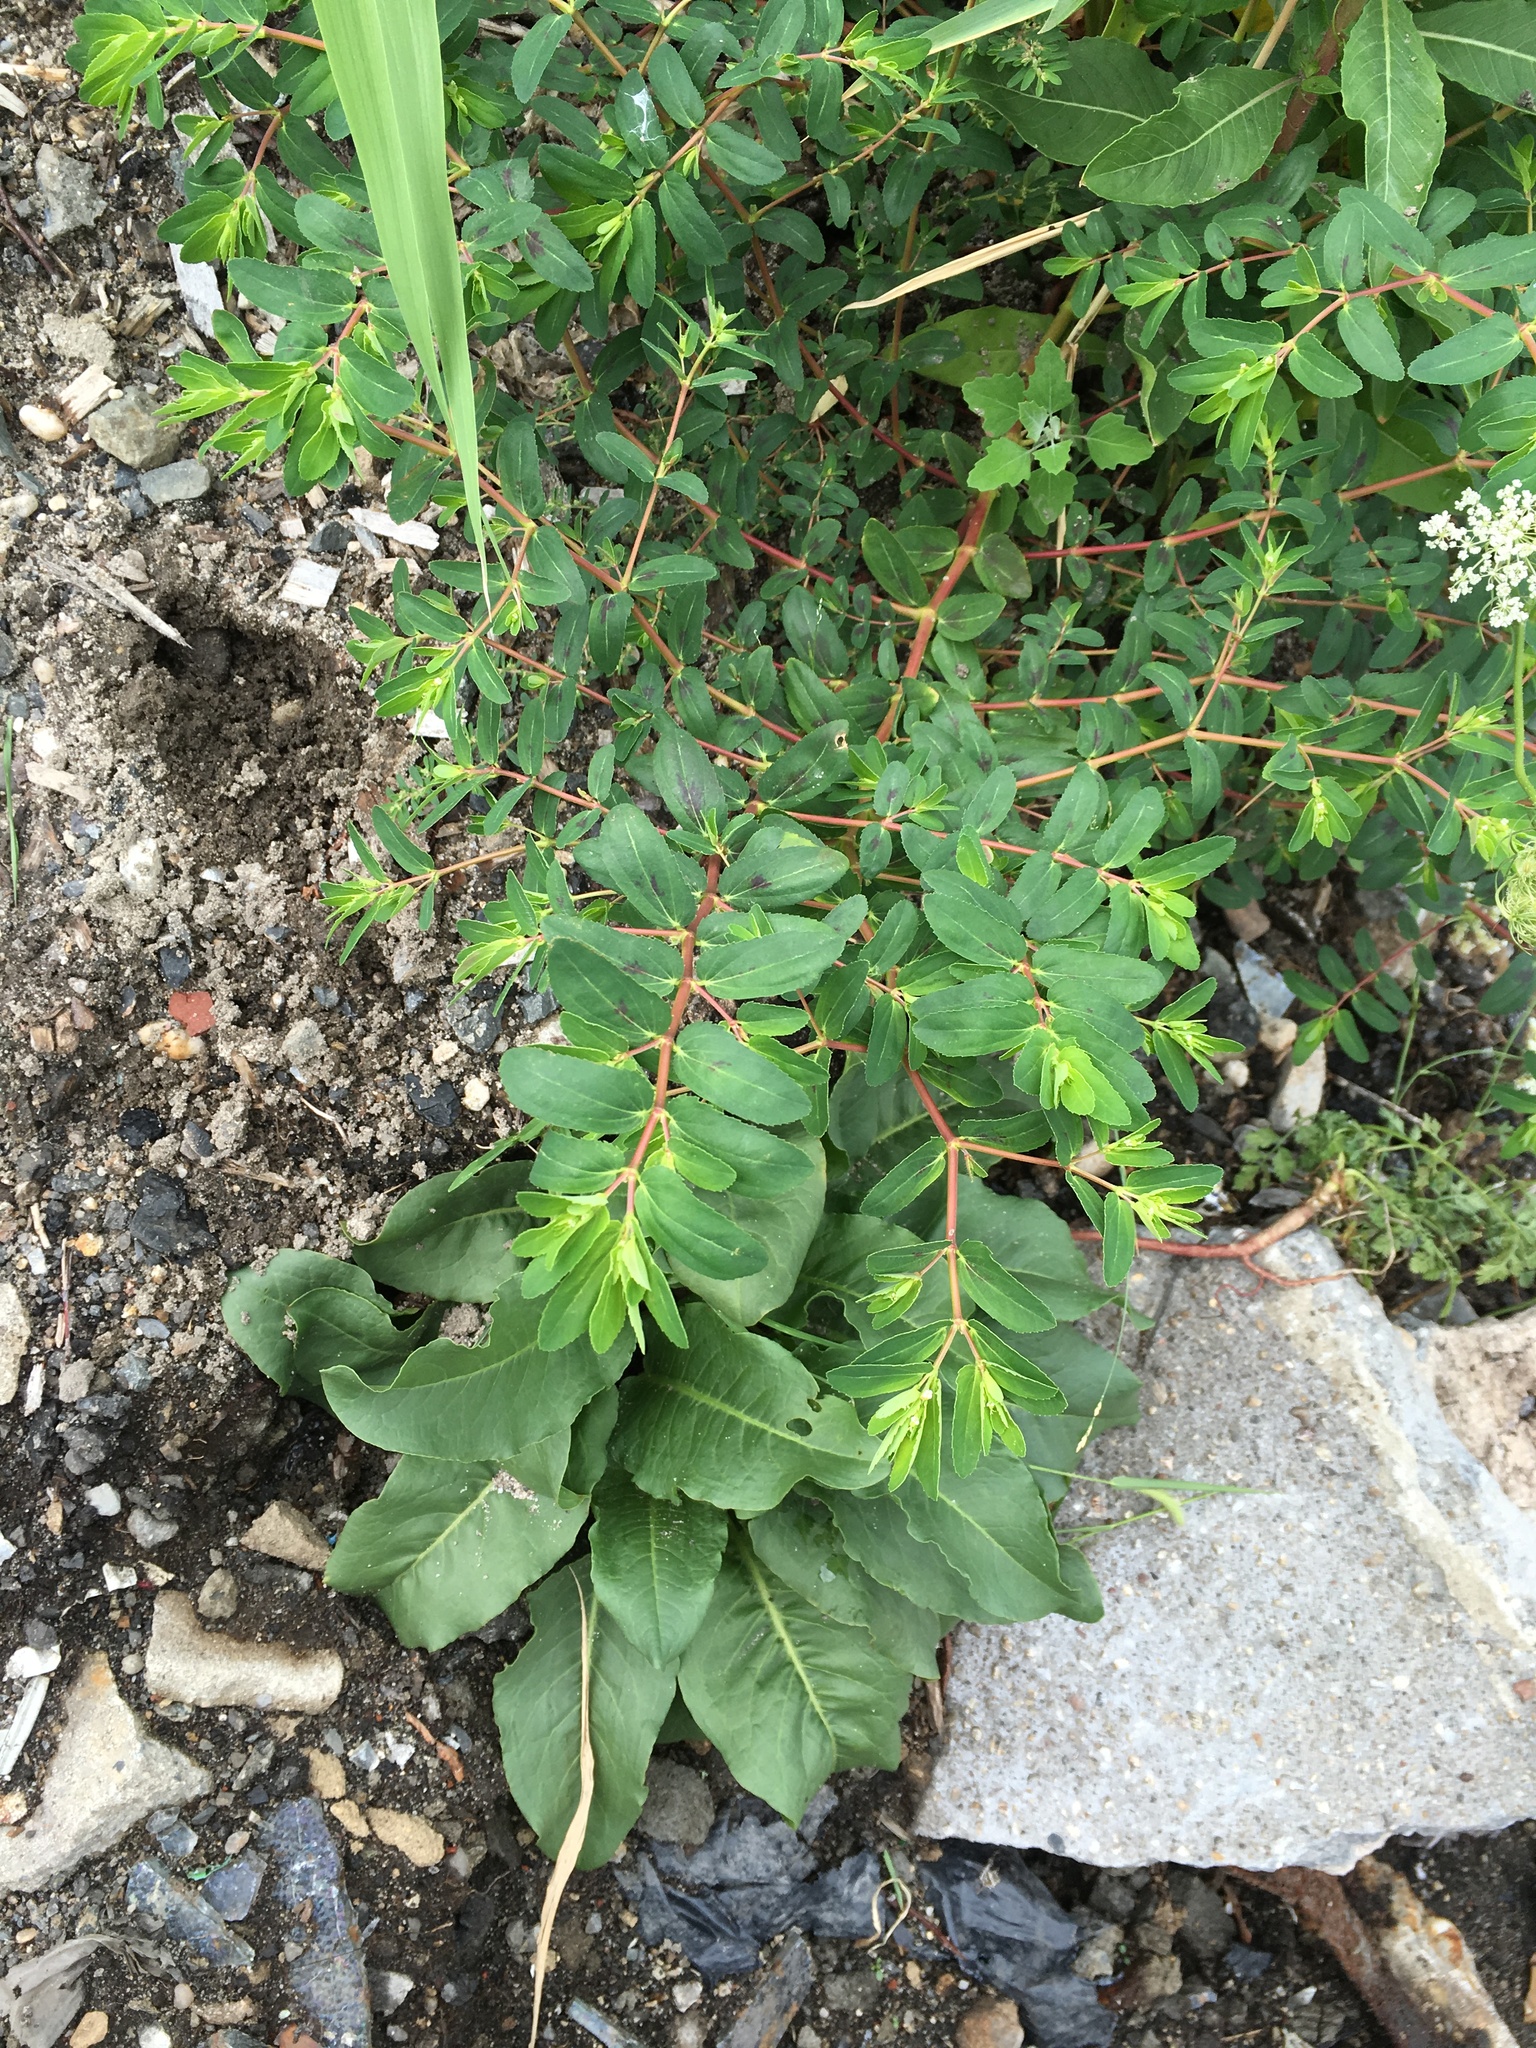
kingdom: Plantae
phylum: Tracheophyta
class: Magnoliopsida
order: Malpighiales
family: Euphorbiaceae
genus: Euphorbia
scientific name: Euphorbia nutans
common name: Eyebane
